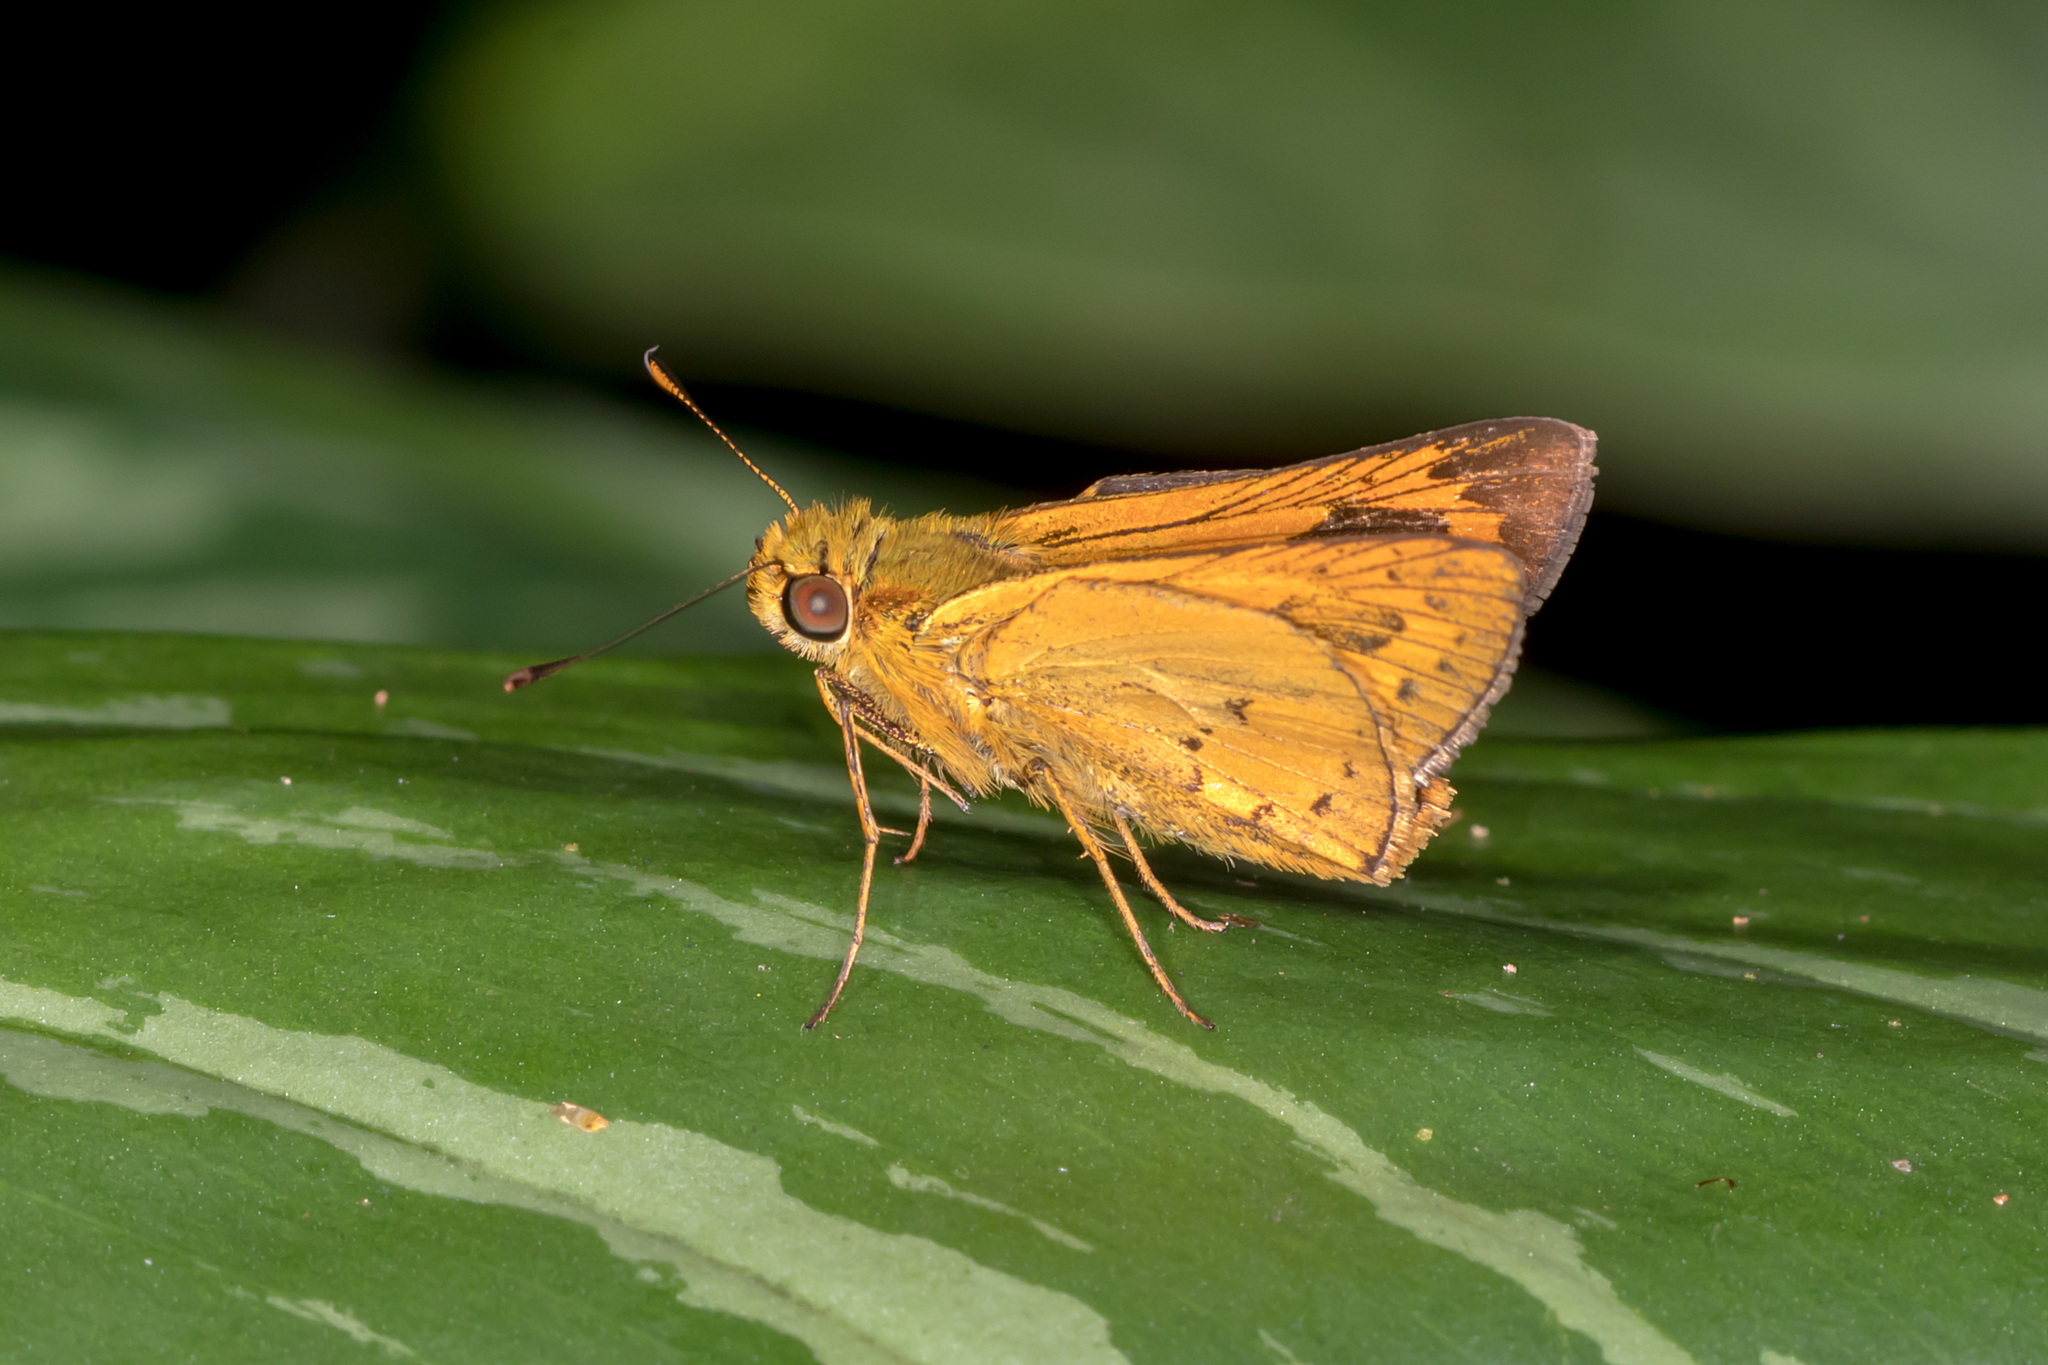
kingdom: Animalia
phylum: Arthropoda
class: Insecta
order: Lepidoptera
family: Hesperiidae
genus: Telicota
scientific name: Telicota paceka
